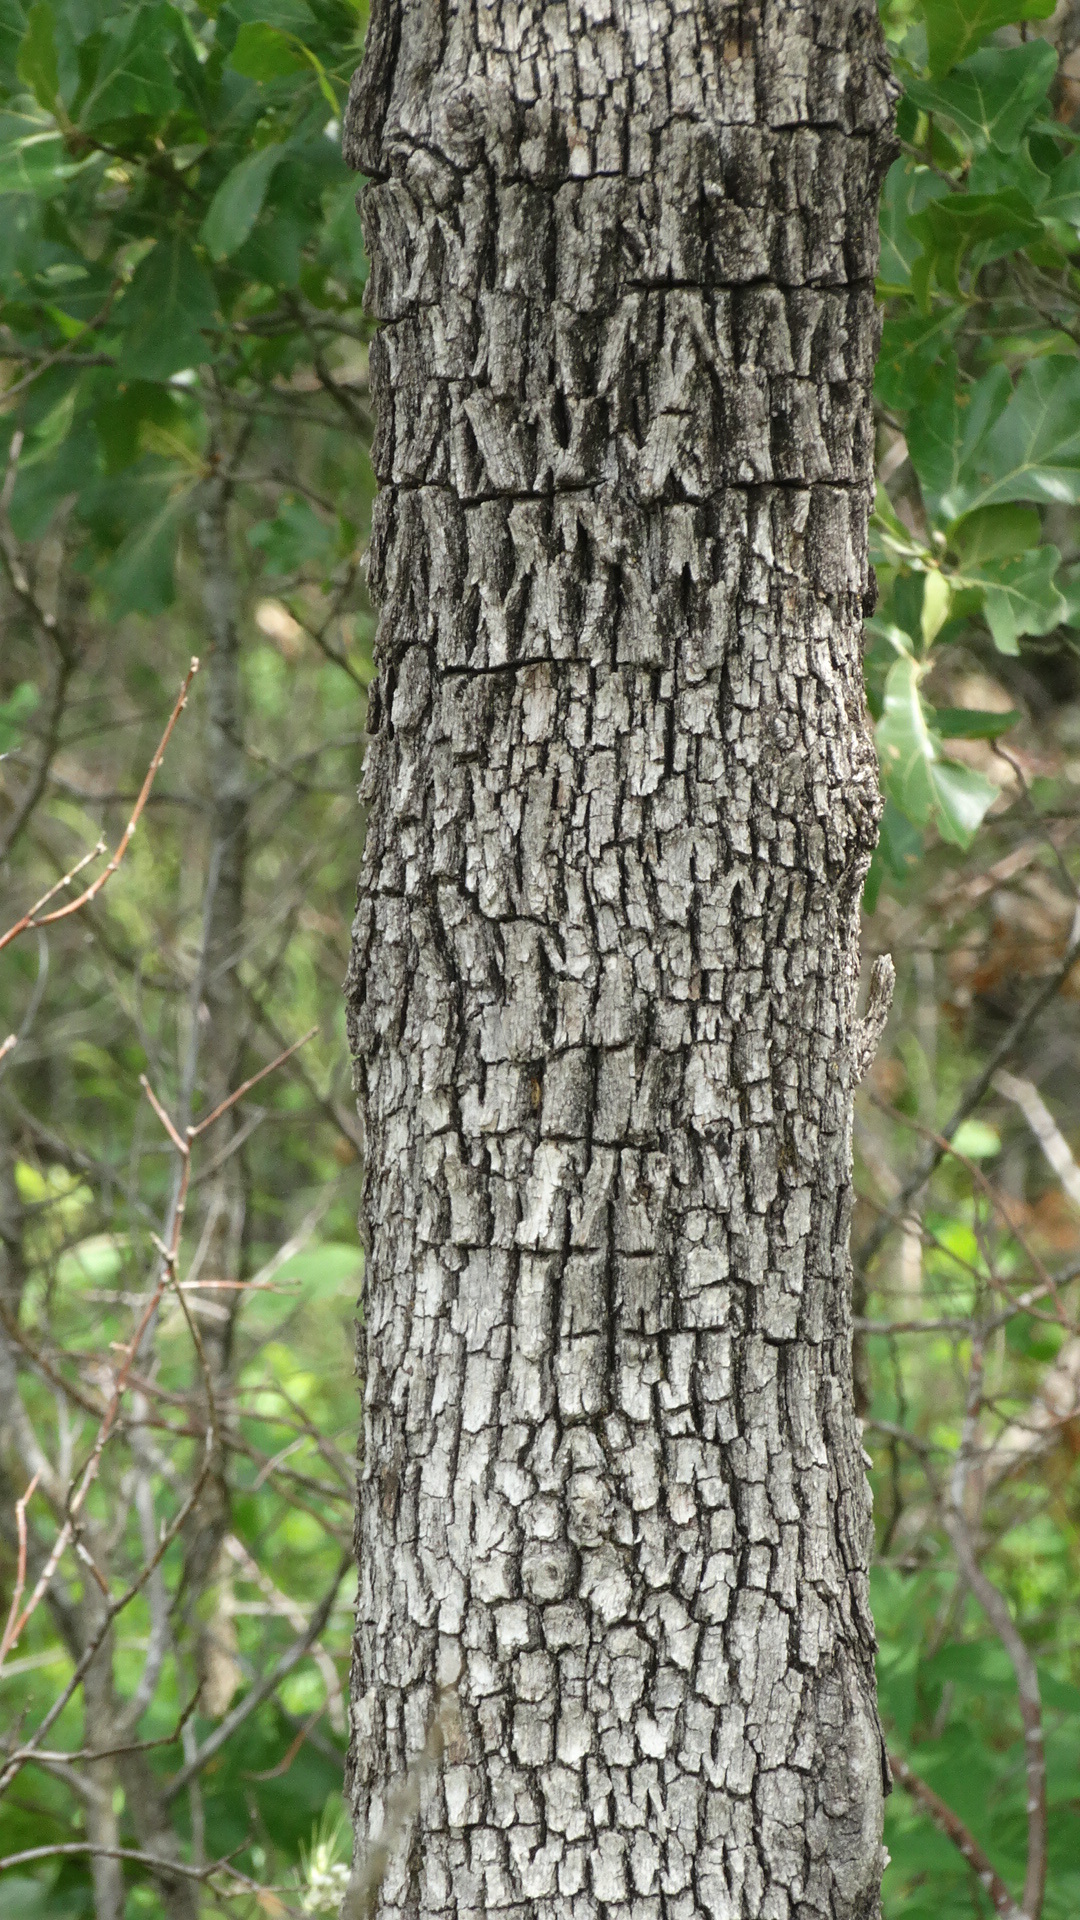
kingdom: Plantae
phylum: Tracheophyta
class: Magnoliopsida
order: Fagales
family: Fagaceae
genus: Quercus
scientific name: Quercus stellata
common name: Post oak
